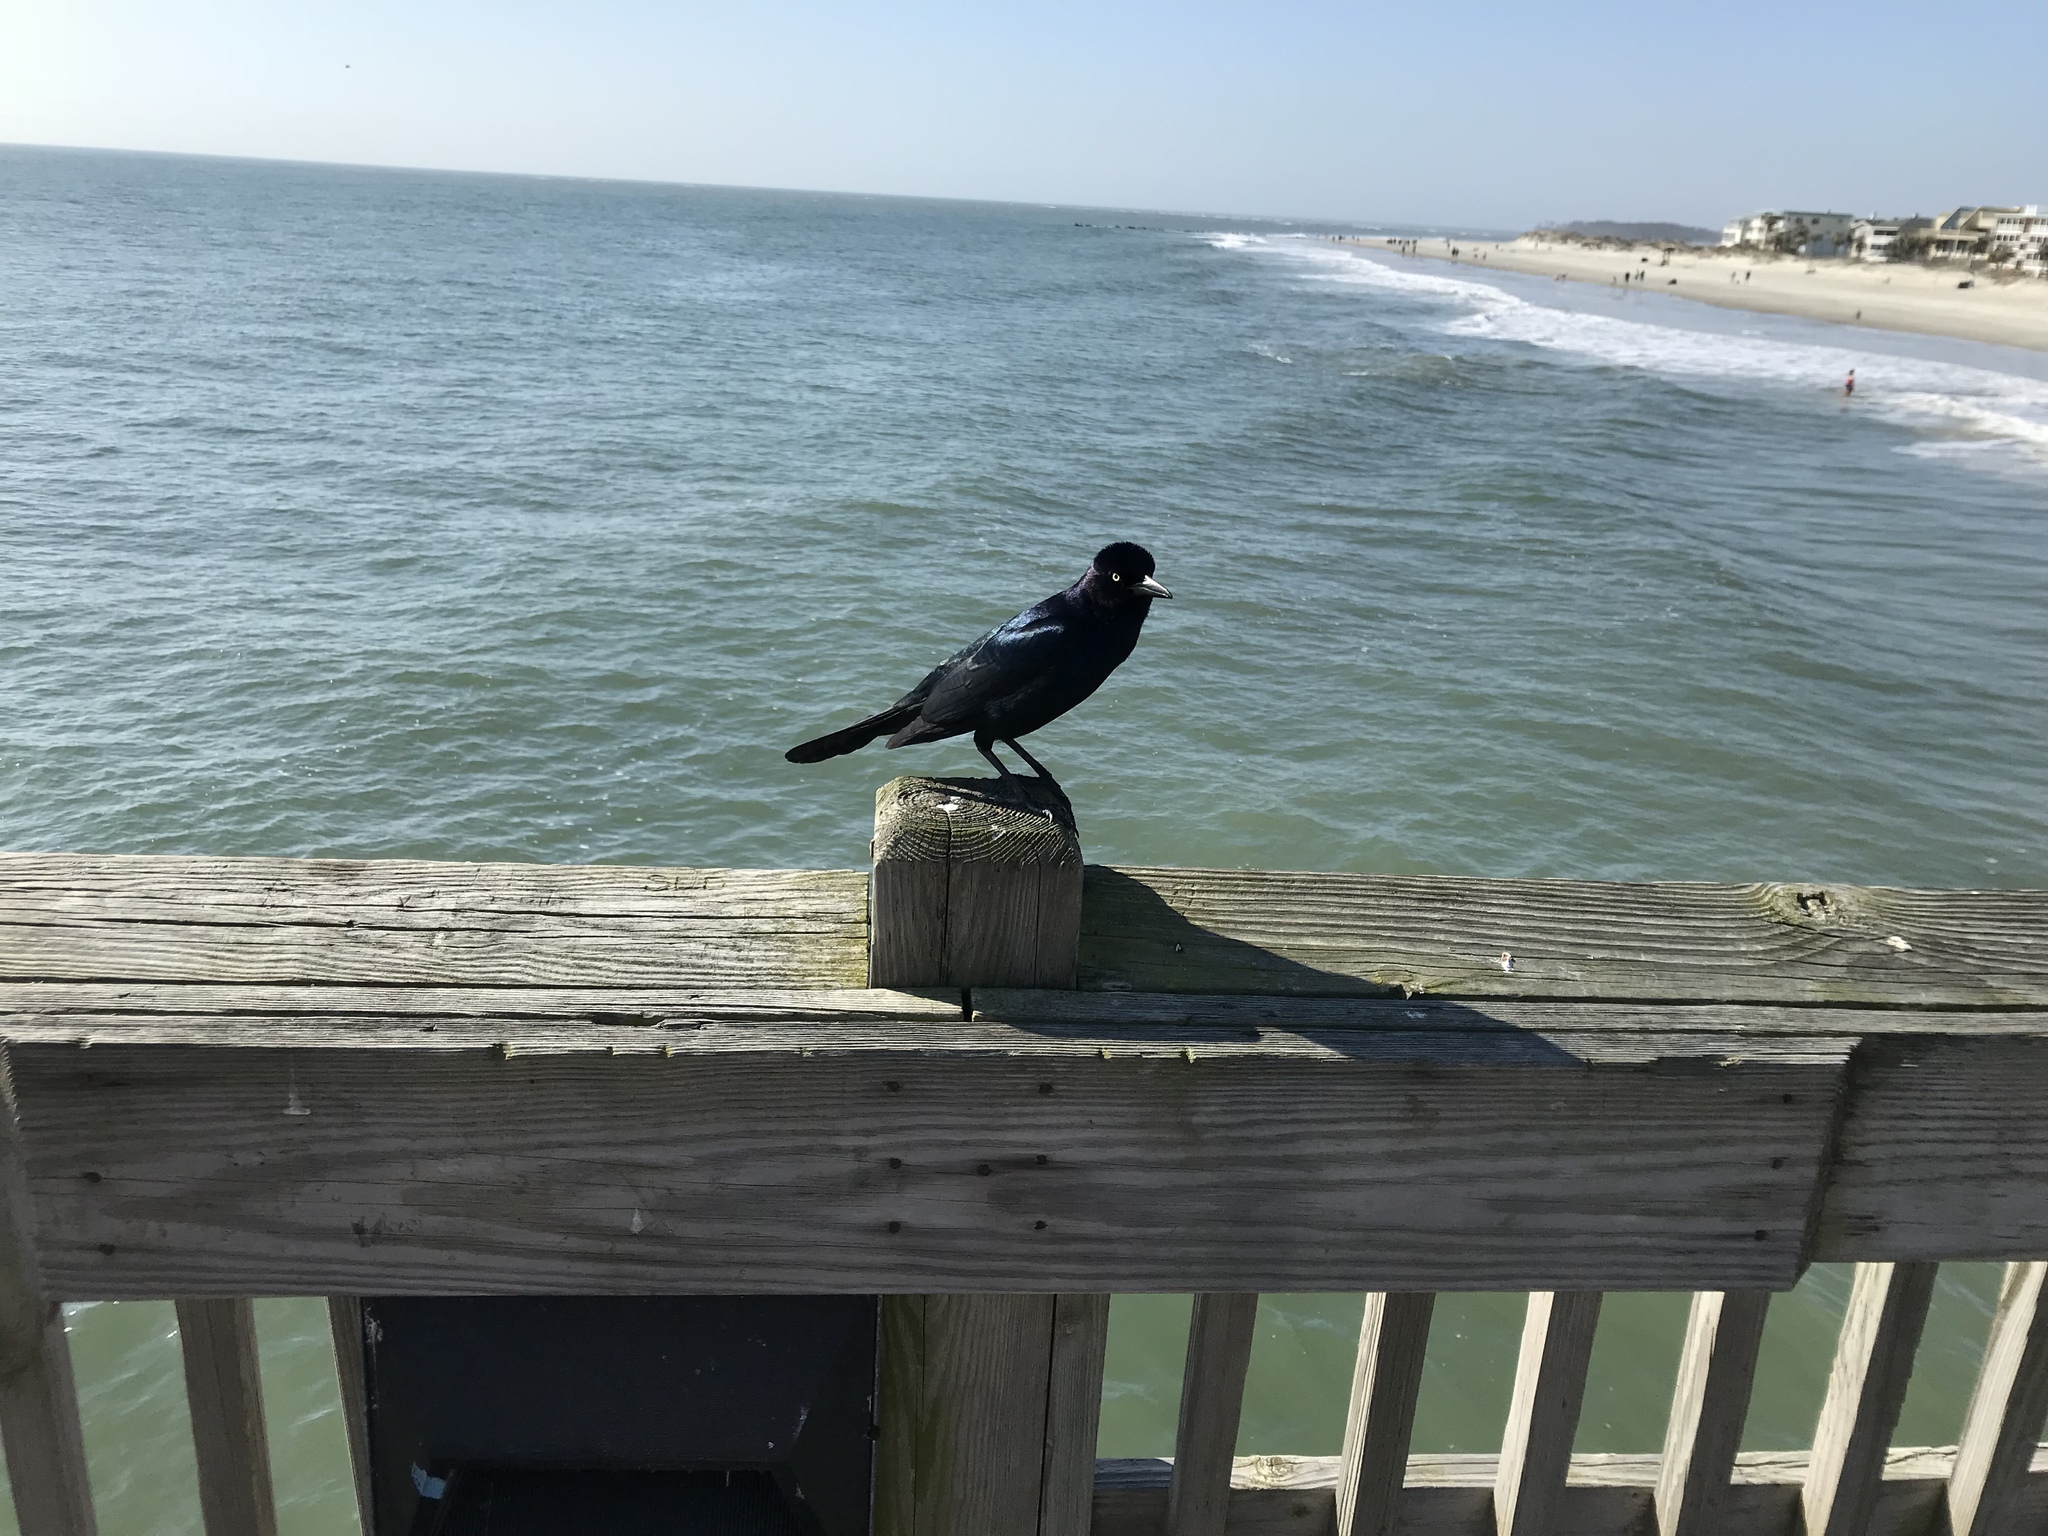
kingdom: Animalia
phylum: Chordata
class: Aves
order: Passeriformes
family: Icteridae
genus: Quiscalus
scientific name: Quiscalus major
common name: Boat-tailed grackle
